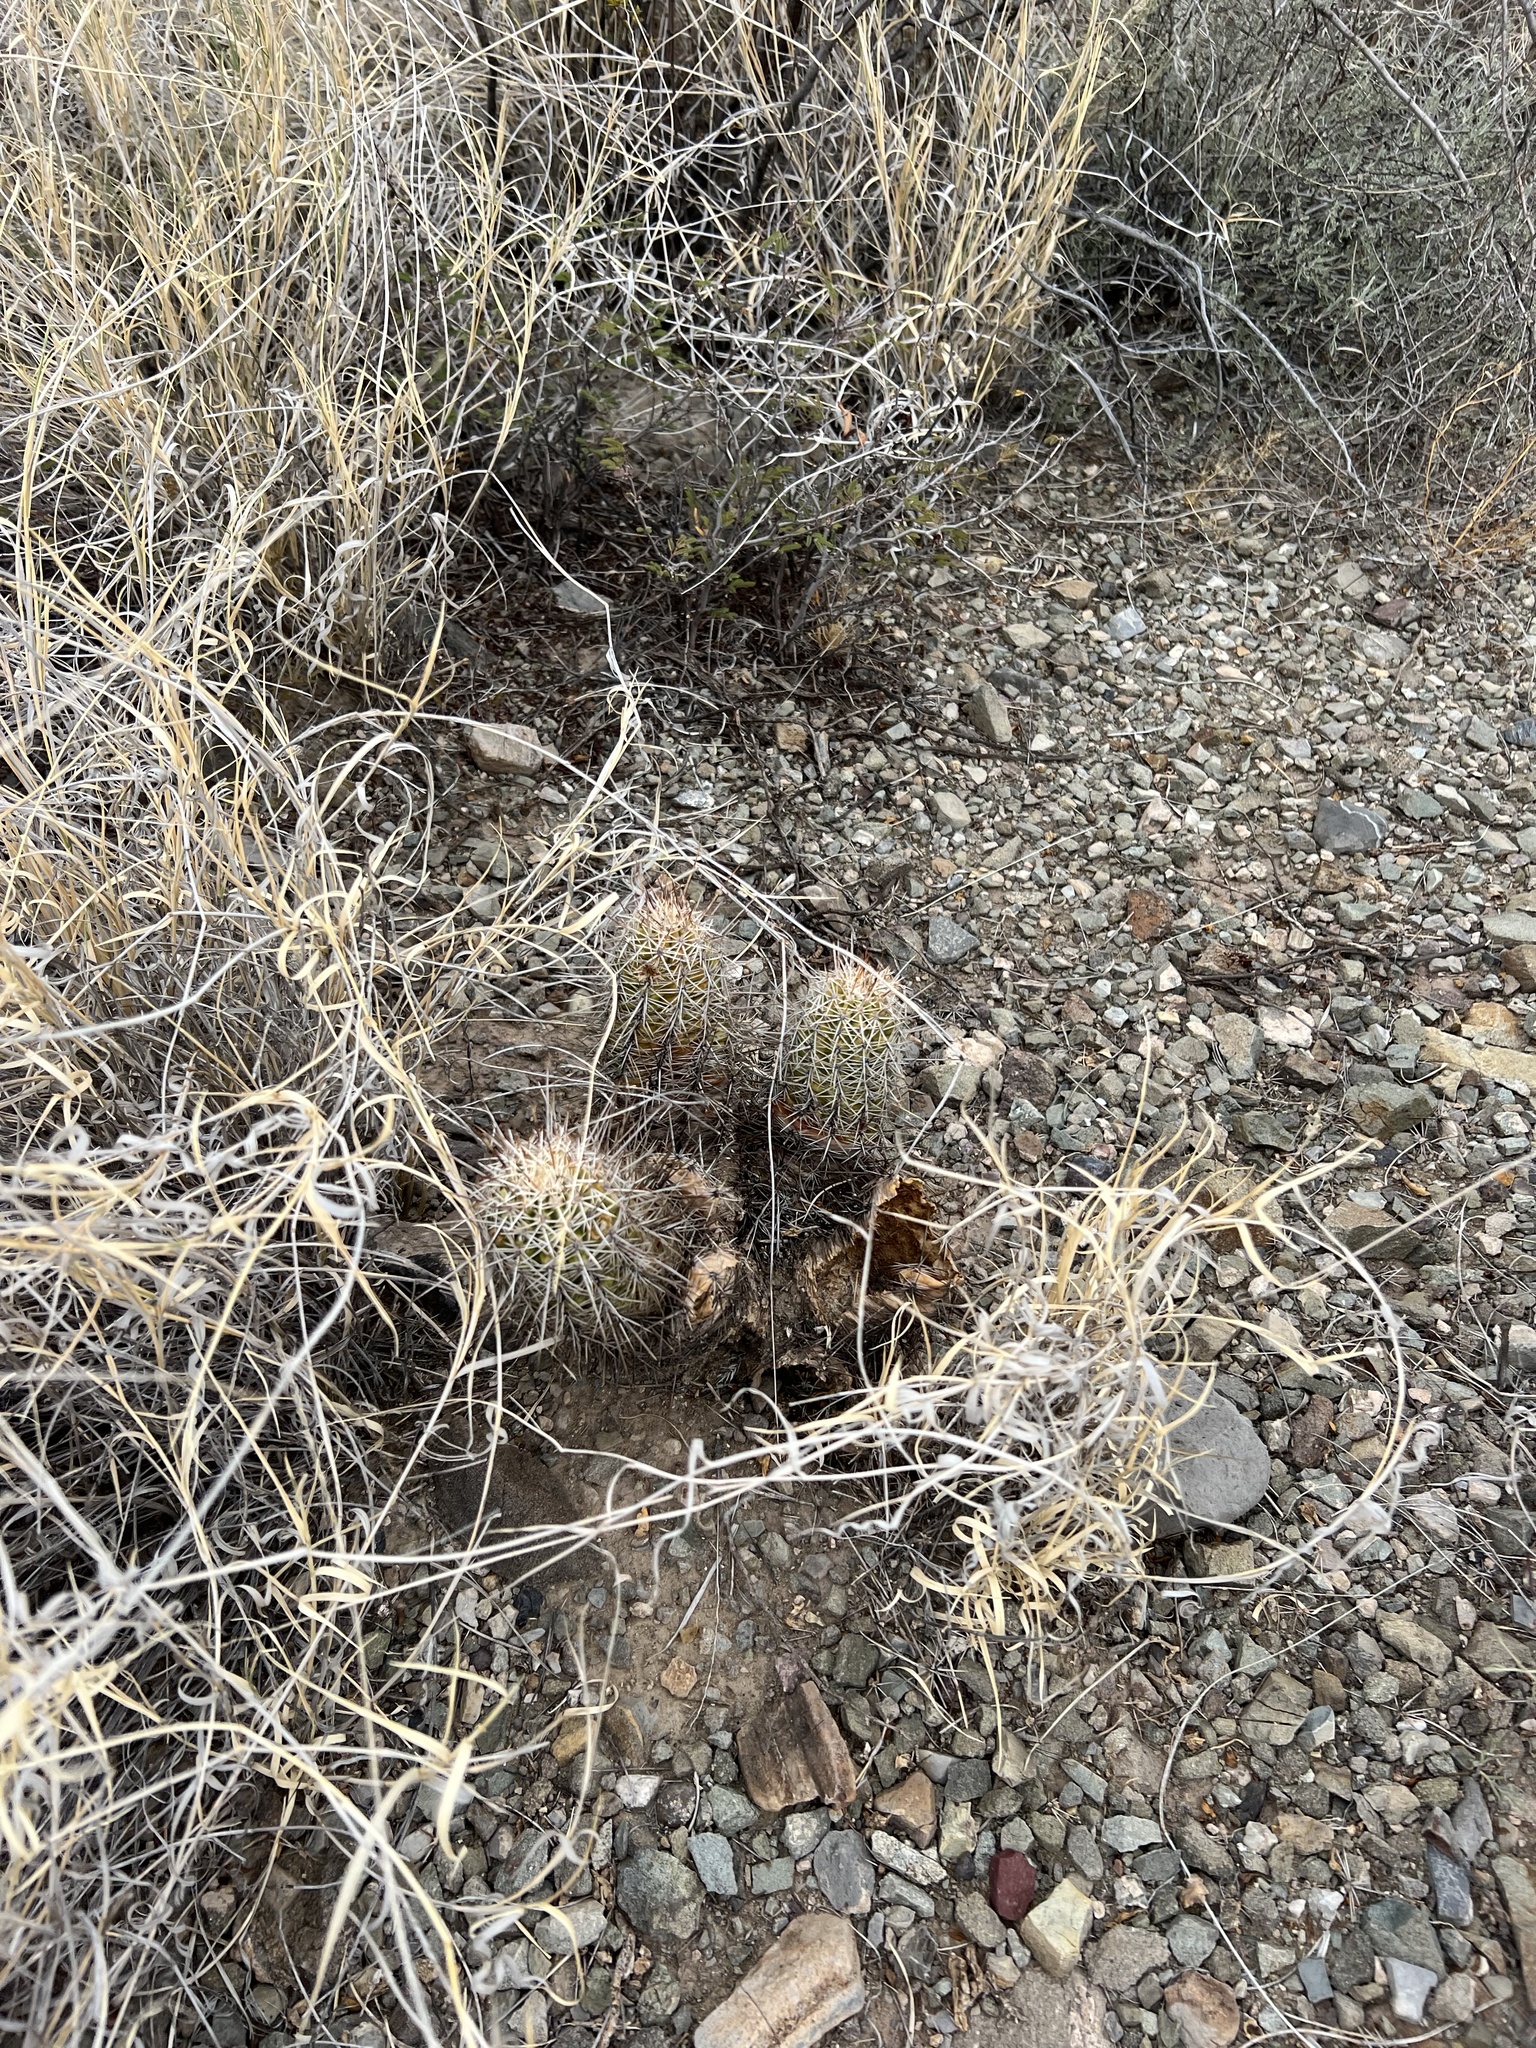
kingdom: Plantae
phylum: Tracheophyta
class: Magnoliopsida
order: Caryophyllales
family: Cactaceae
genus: Echinocereus
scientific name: Echinocereus fasciculatus
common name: Bundle hedgehog
